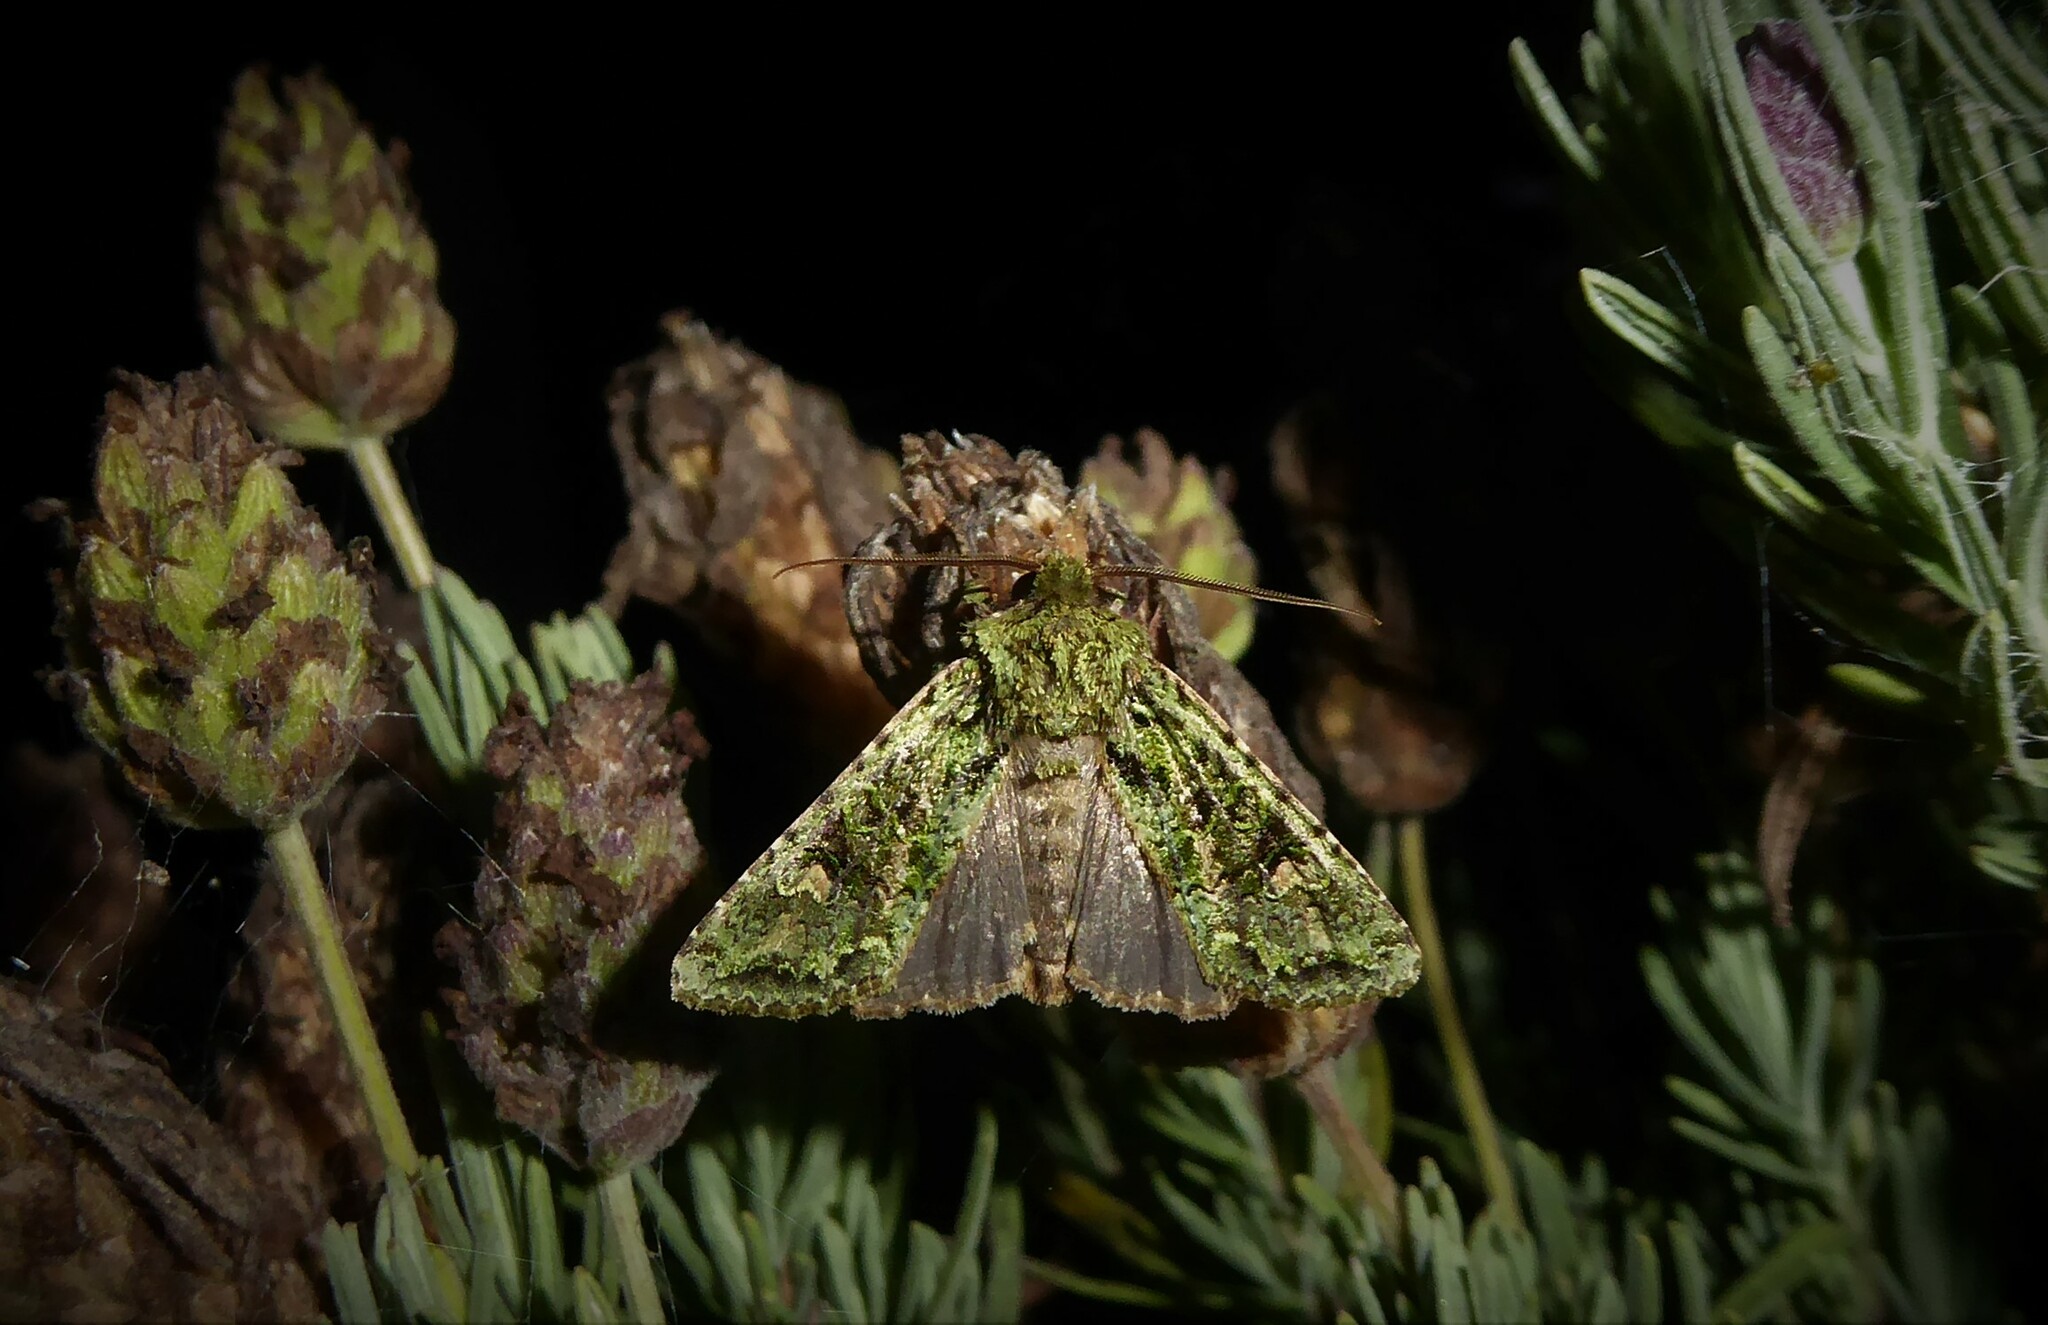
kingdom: Animalia
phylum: Arthropoda
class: Insecta
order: Lepidoptera
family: Noctuidae
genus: Ichneutica
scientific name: Ichneutica
